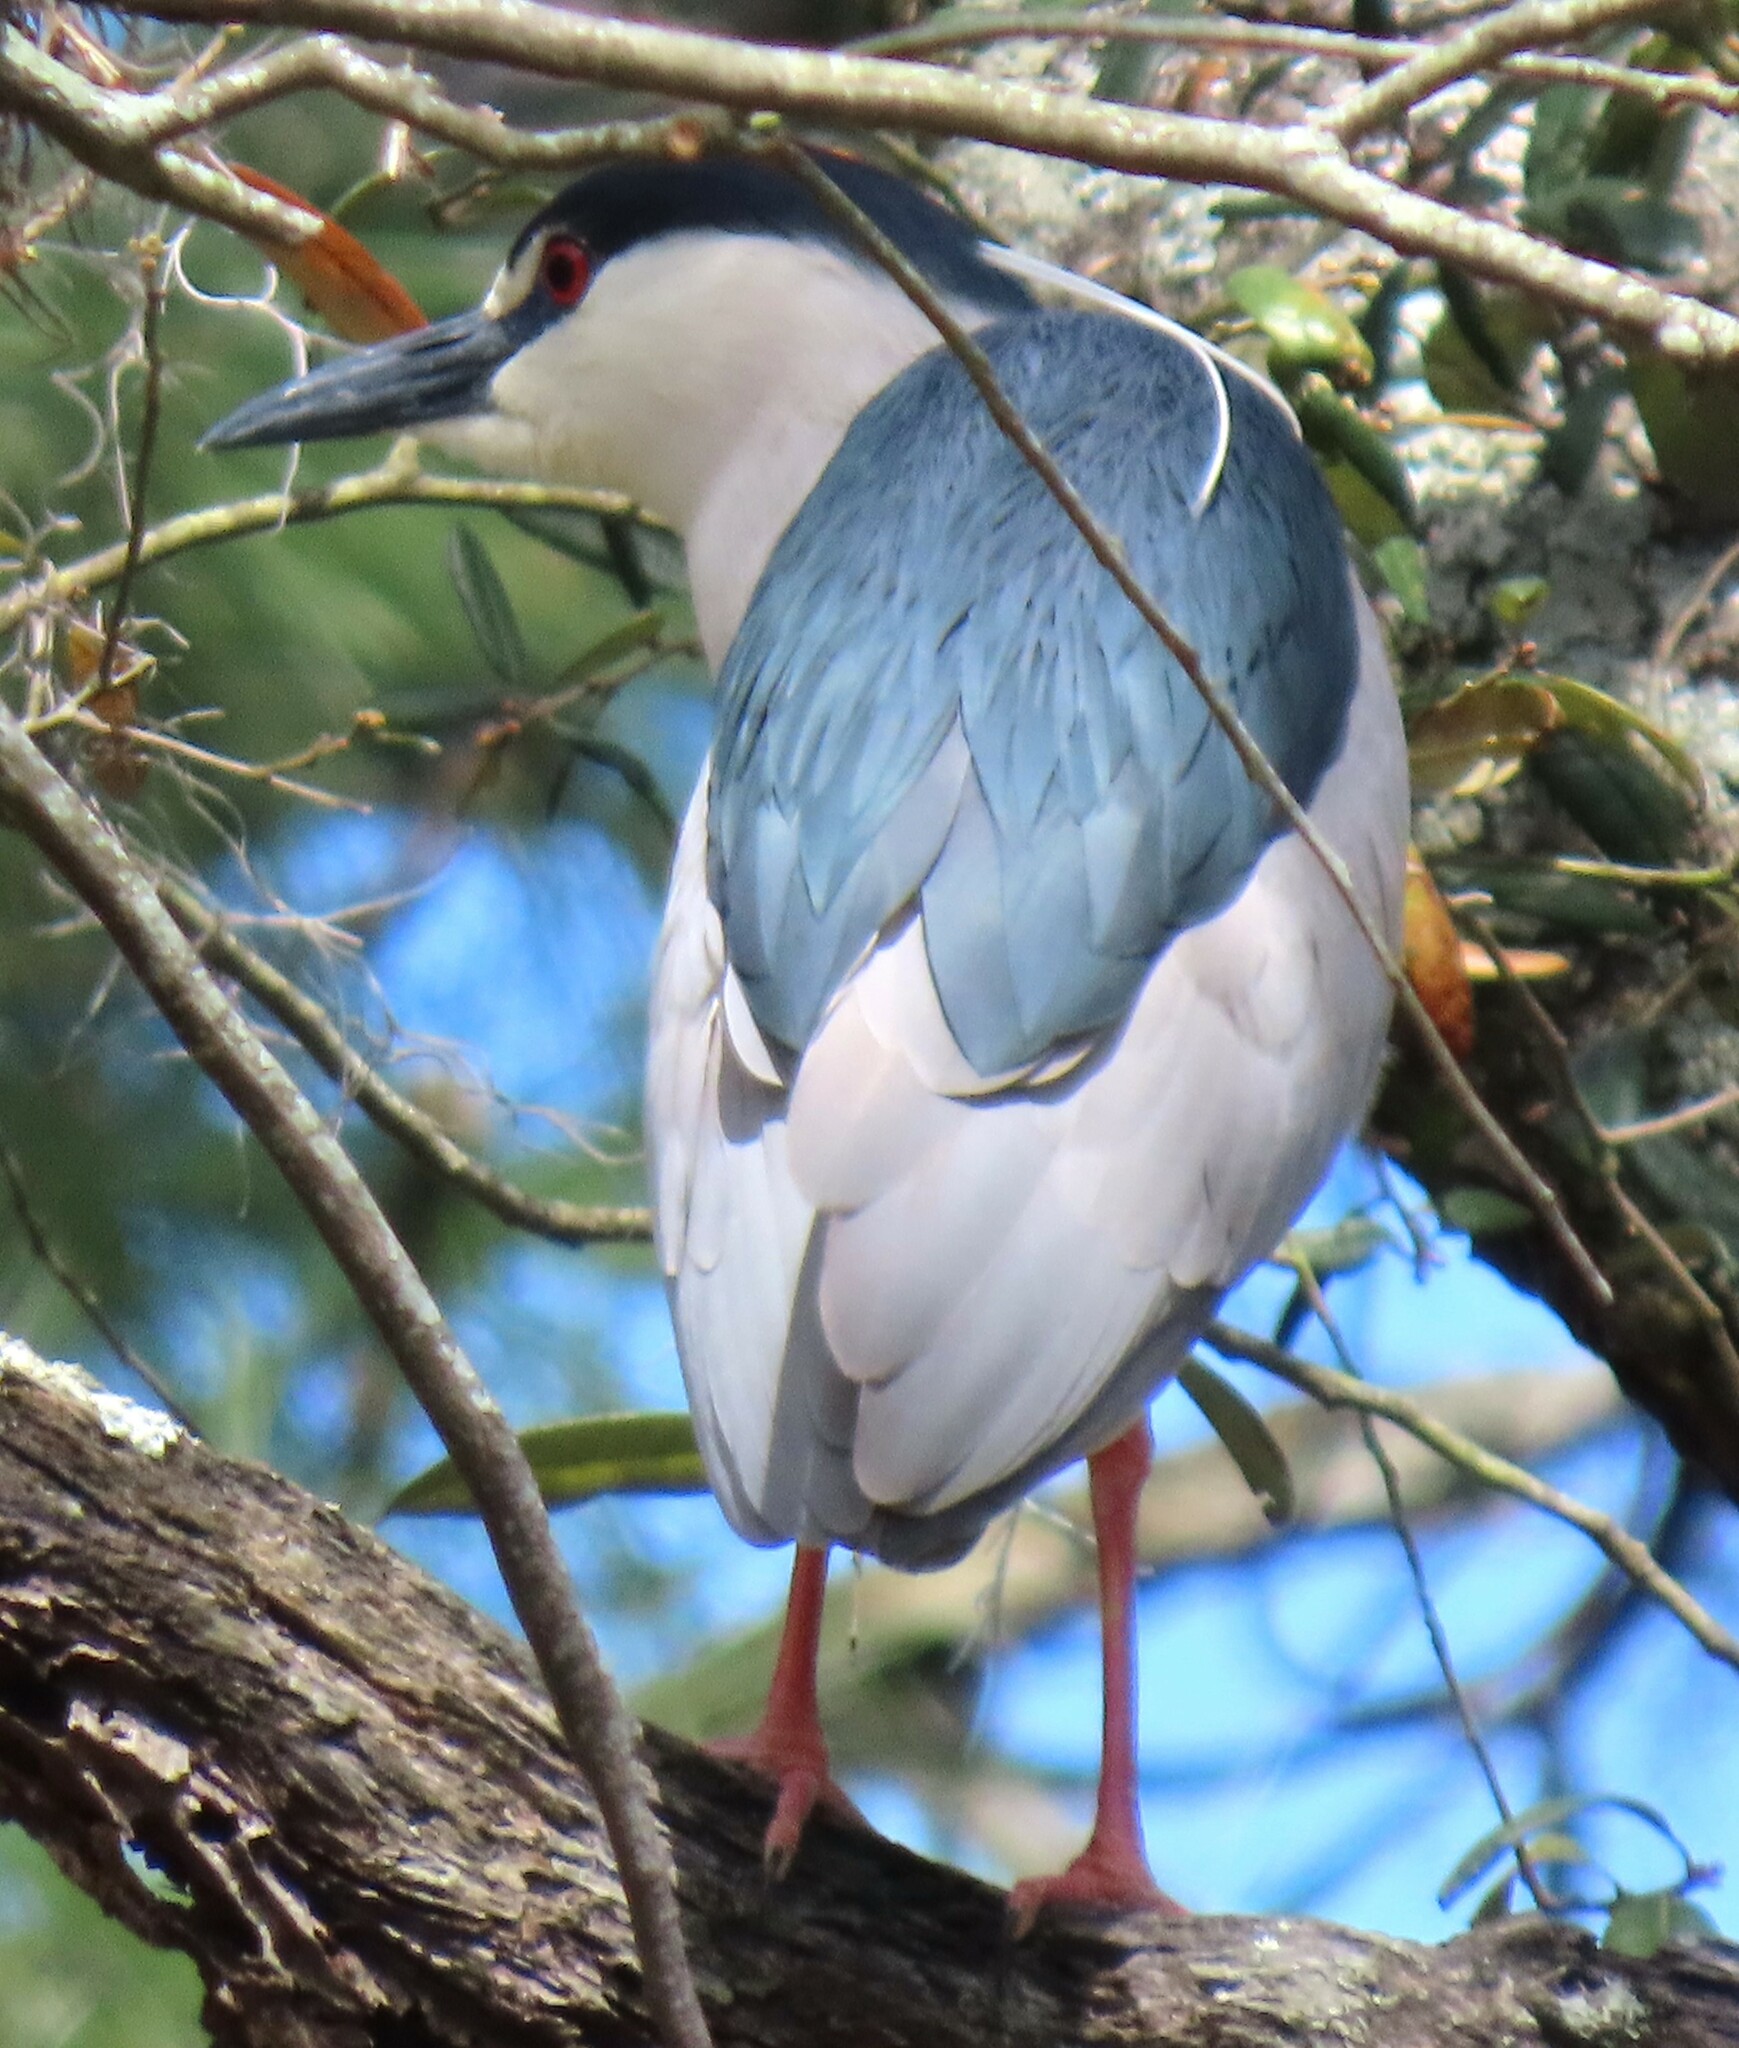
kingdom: Animalia
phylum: Chordata
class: Aves
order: Pelecaniformes
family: Ardeidae
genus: Nycticorax
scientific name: Nycticorax nycticorax
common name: Black-crowned night heron
